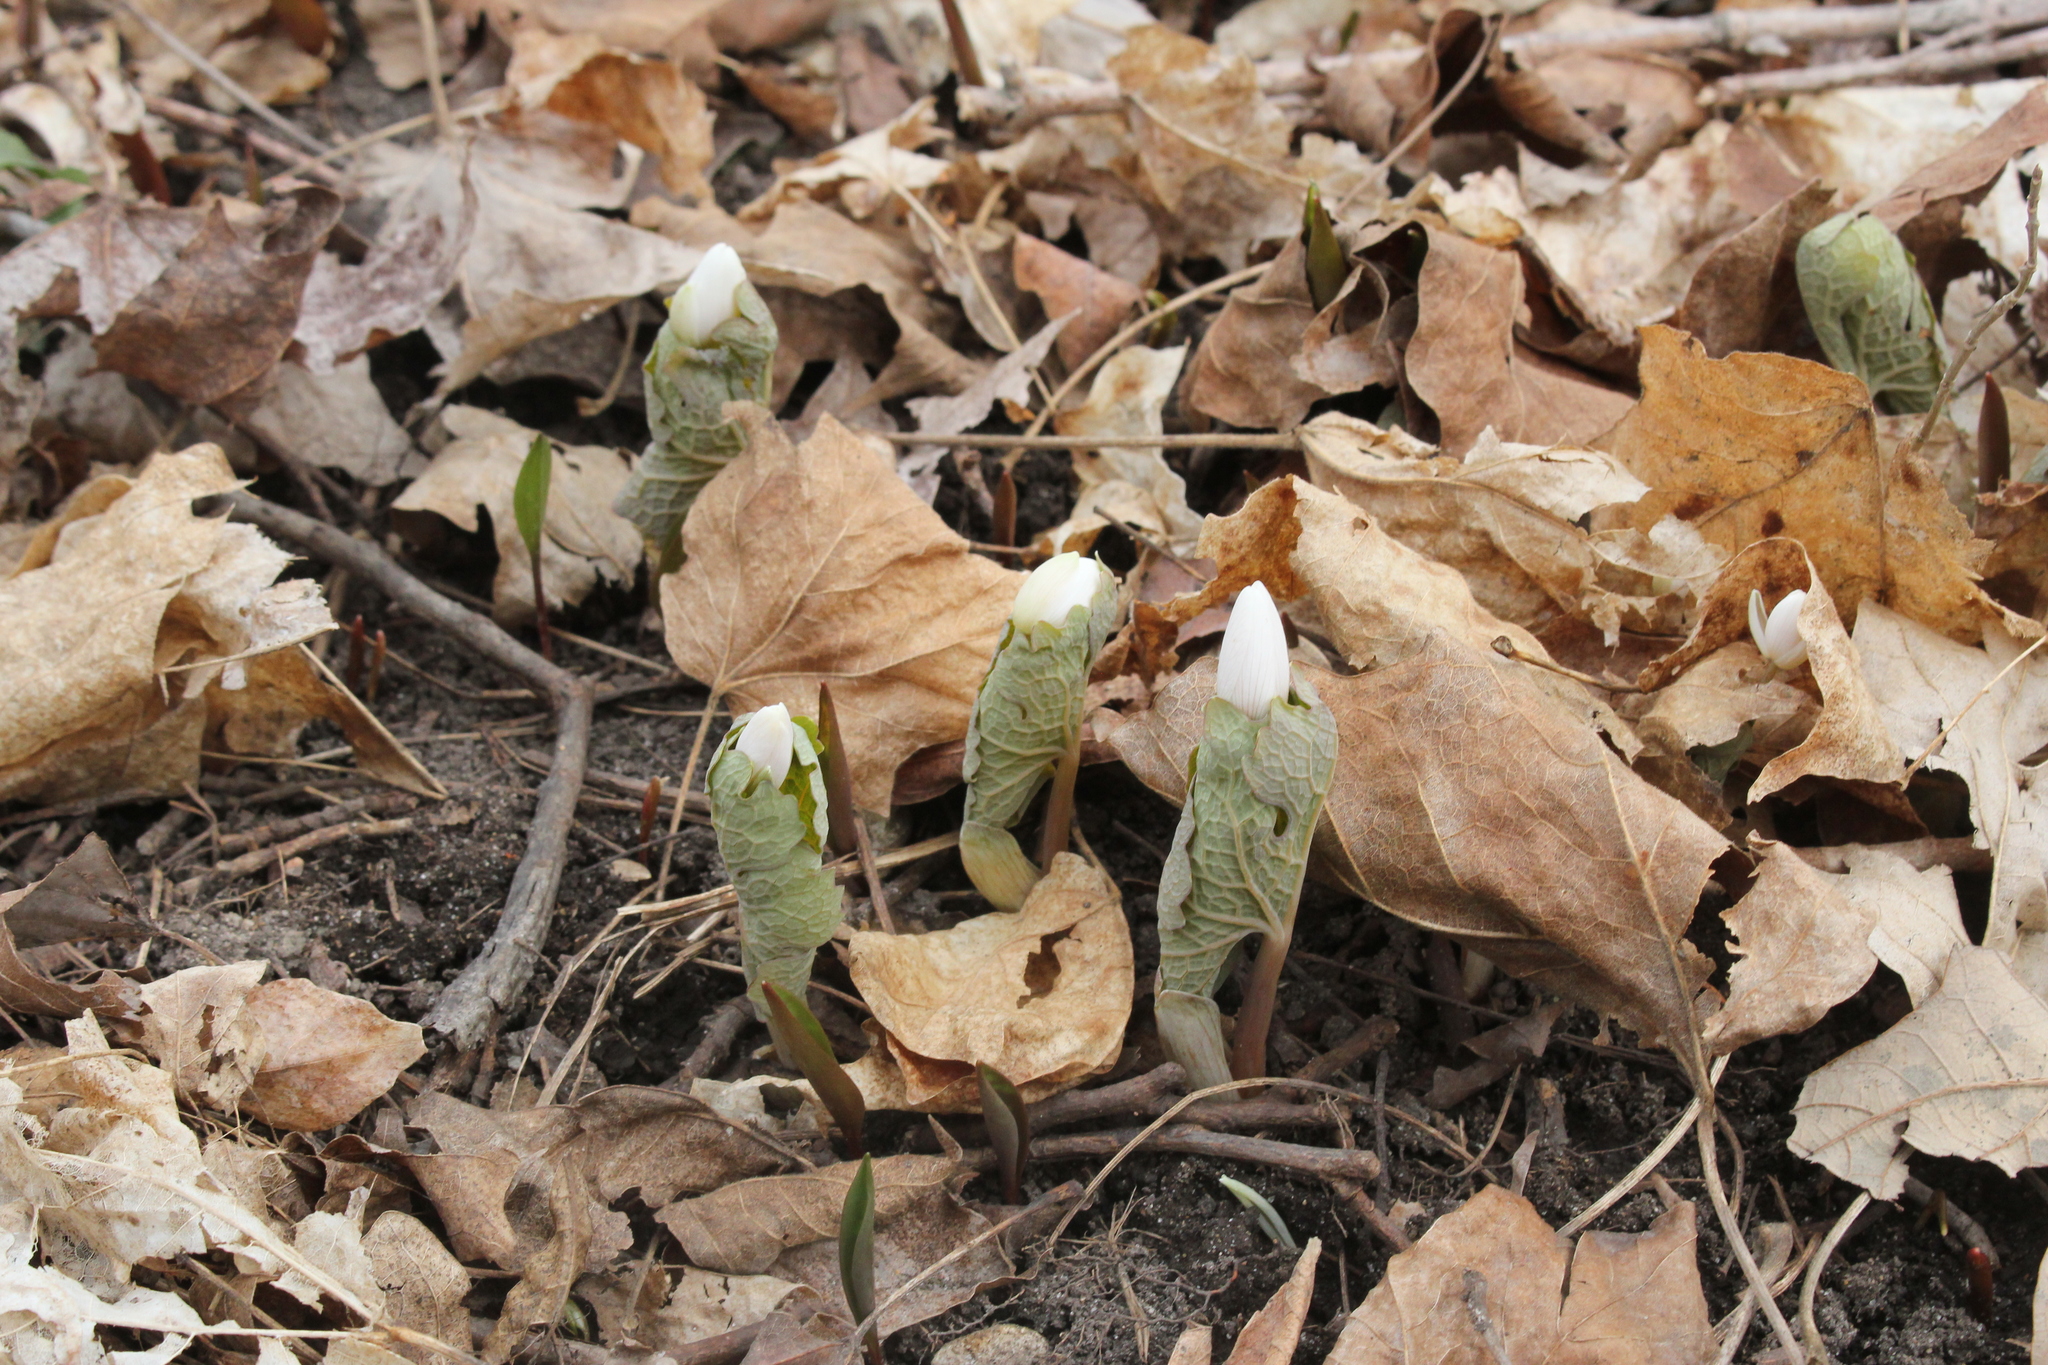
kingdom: Plantae
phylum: Tracheophyta
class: Magnoliopsida
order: Ranunculales
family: Papaveraceae
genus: Sanguinaria
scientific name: Sanguinaria canadensis
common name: Bloodroot
